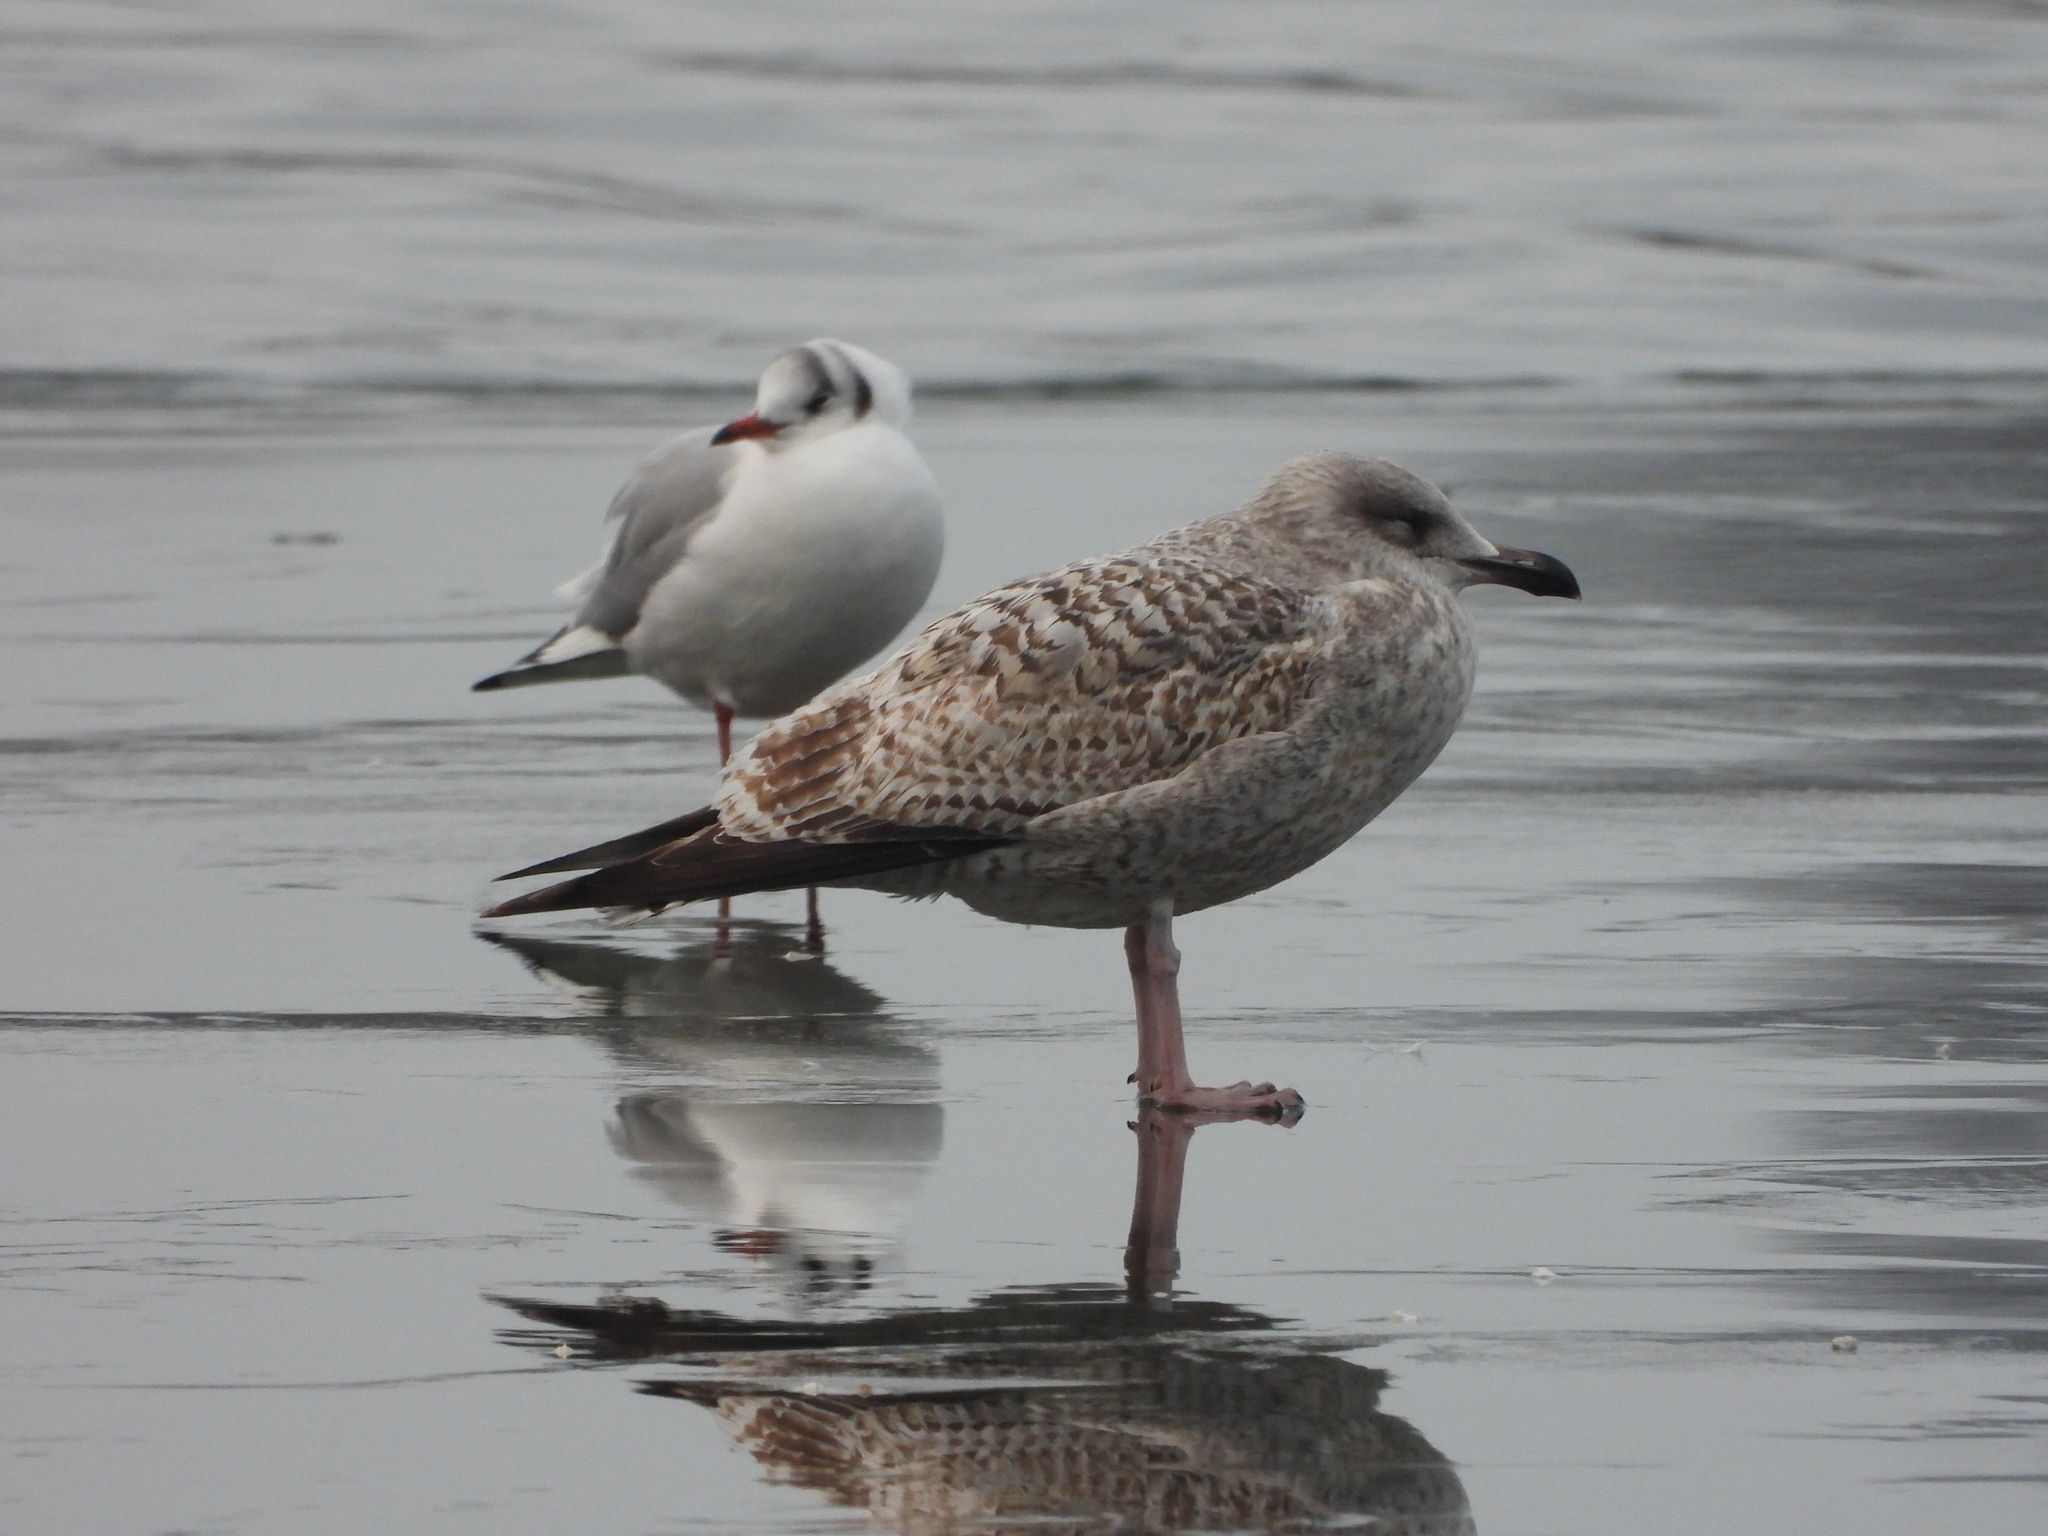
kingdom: Animalia
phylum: Chordata
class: Aves
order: Charadriiformes
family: Laridae
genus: Larus
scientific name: Larus argentatus
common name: Herring gull
